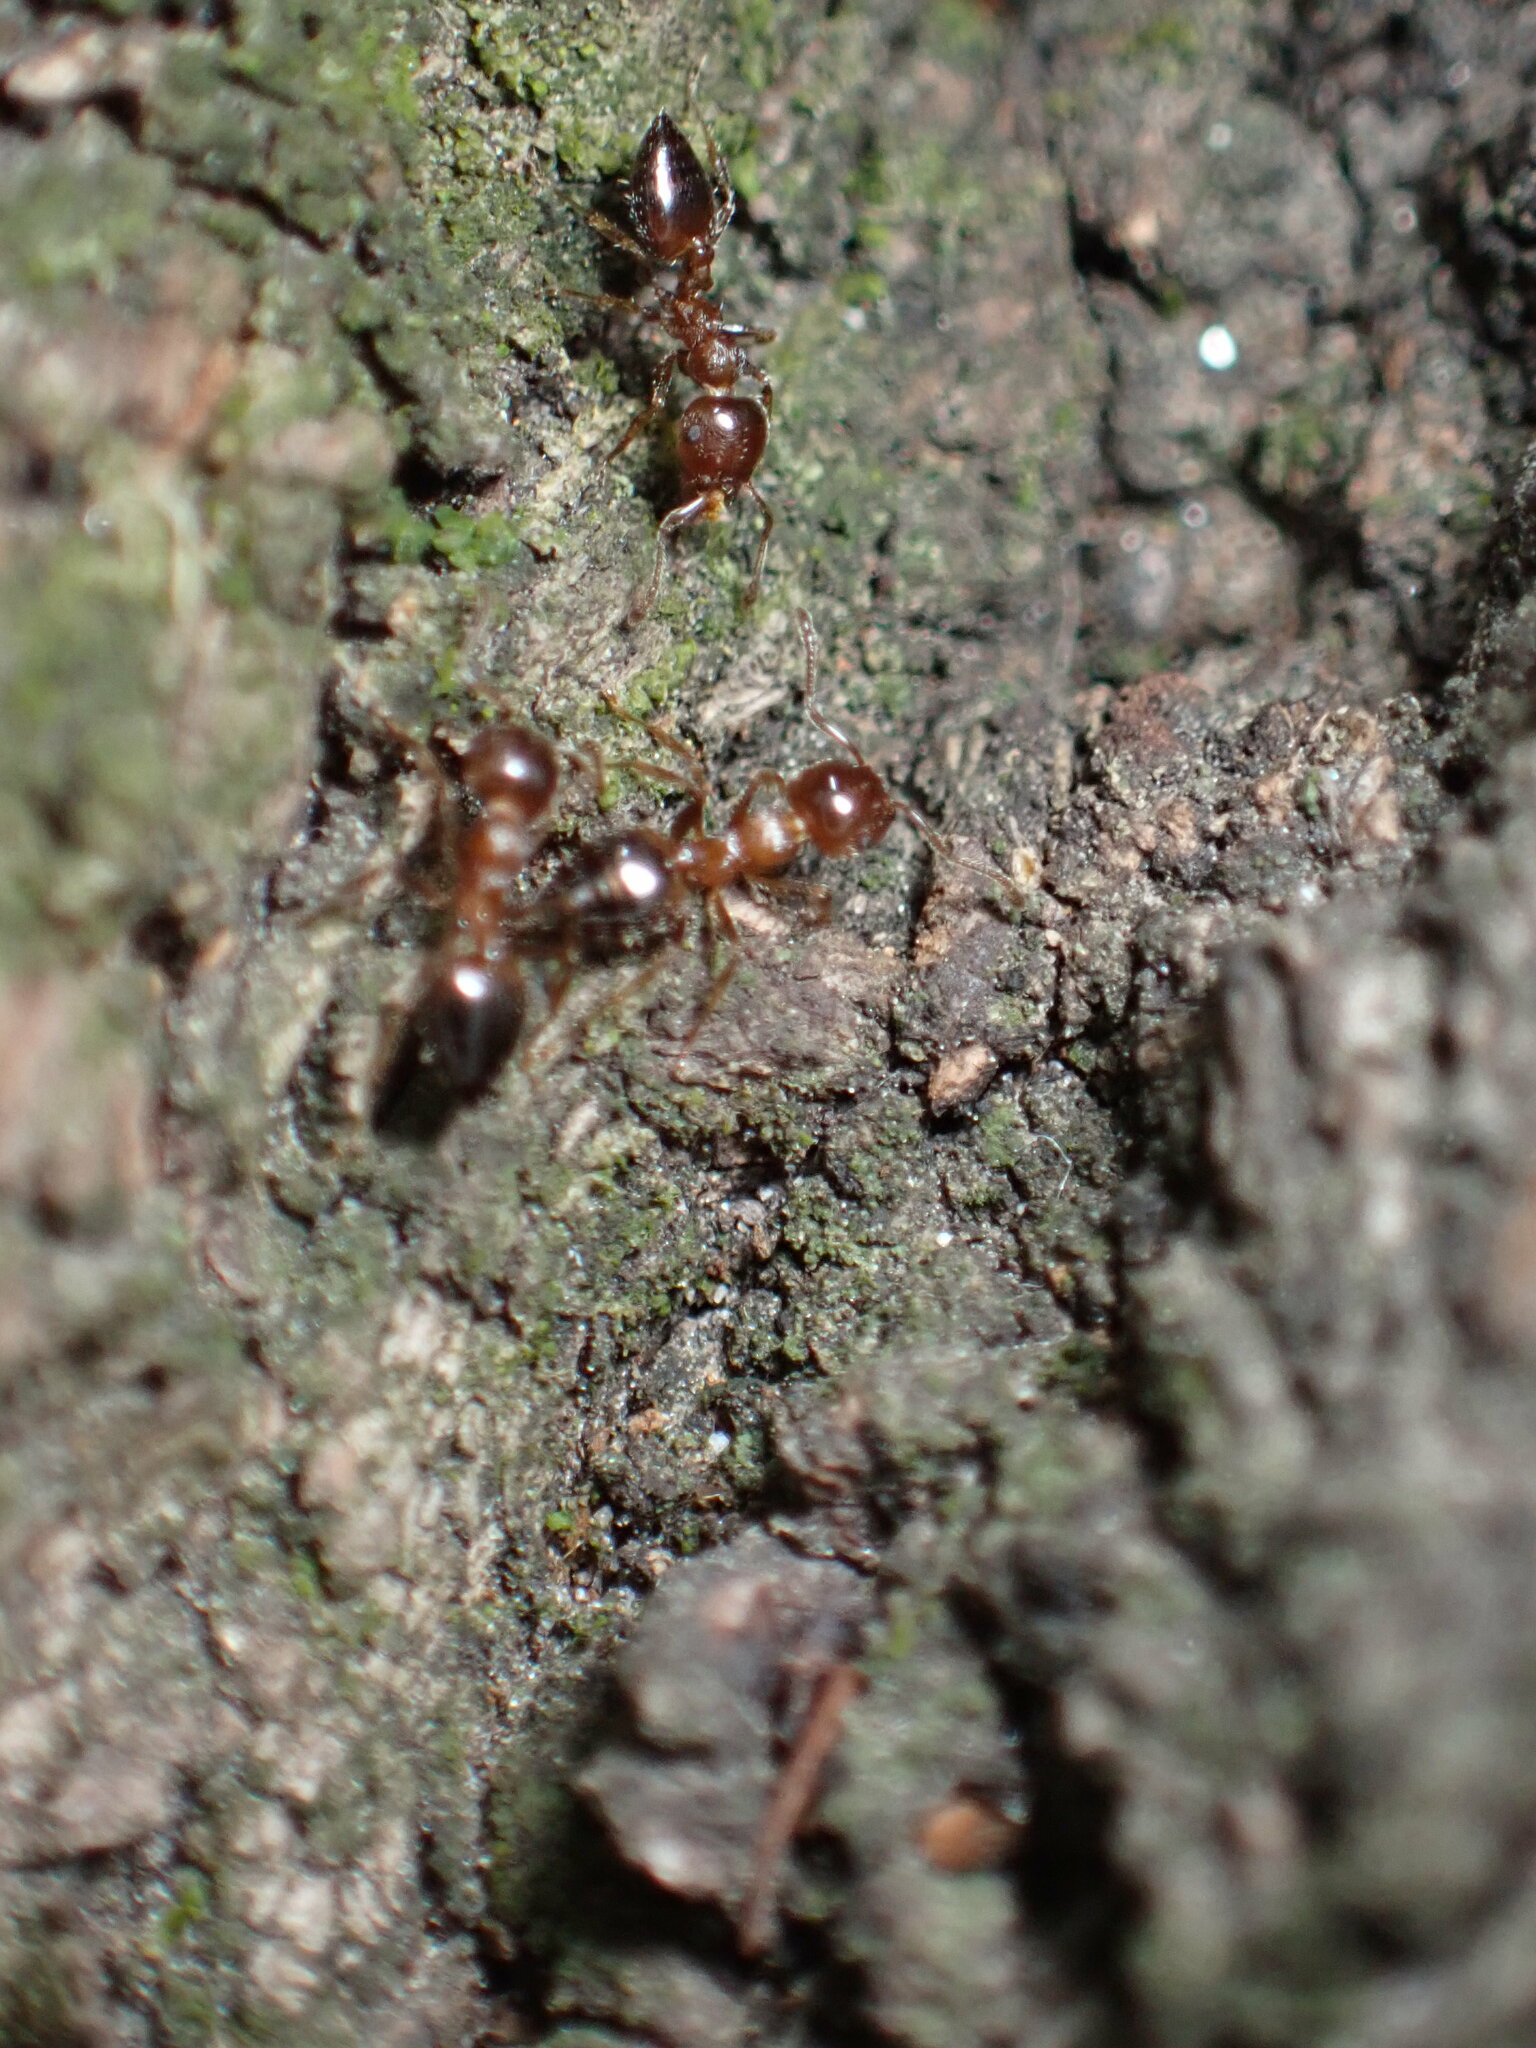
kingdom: Animalia
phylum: Arthropoda
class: Insecta
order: Hymenoptera
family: Formicidae
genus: Crematogaster
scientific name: Crematogaster teranishii
